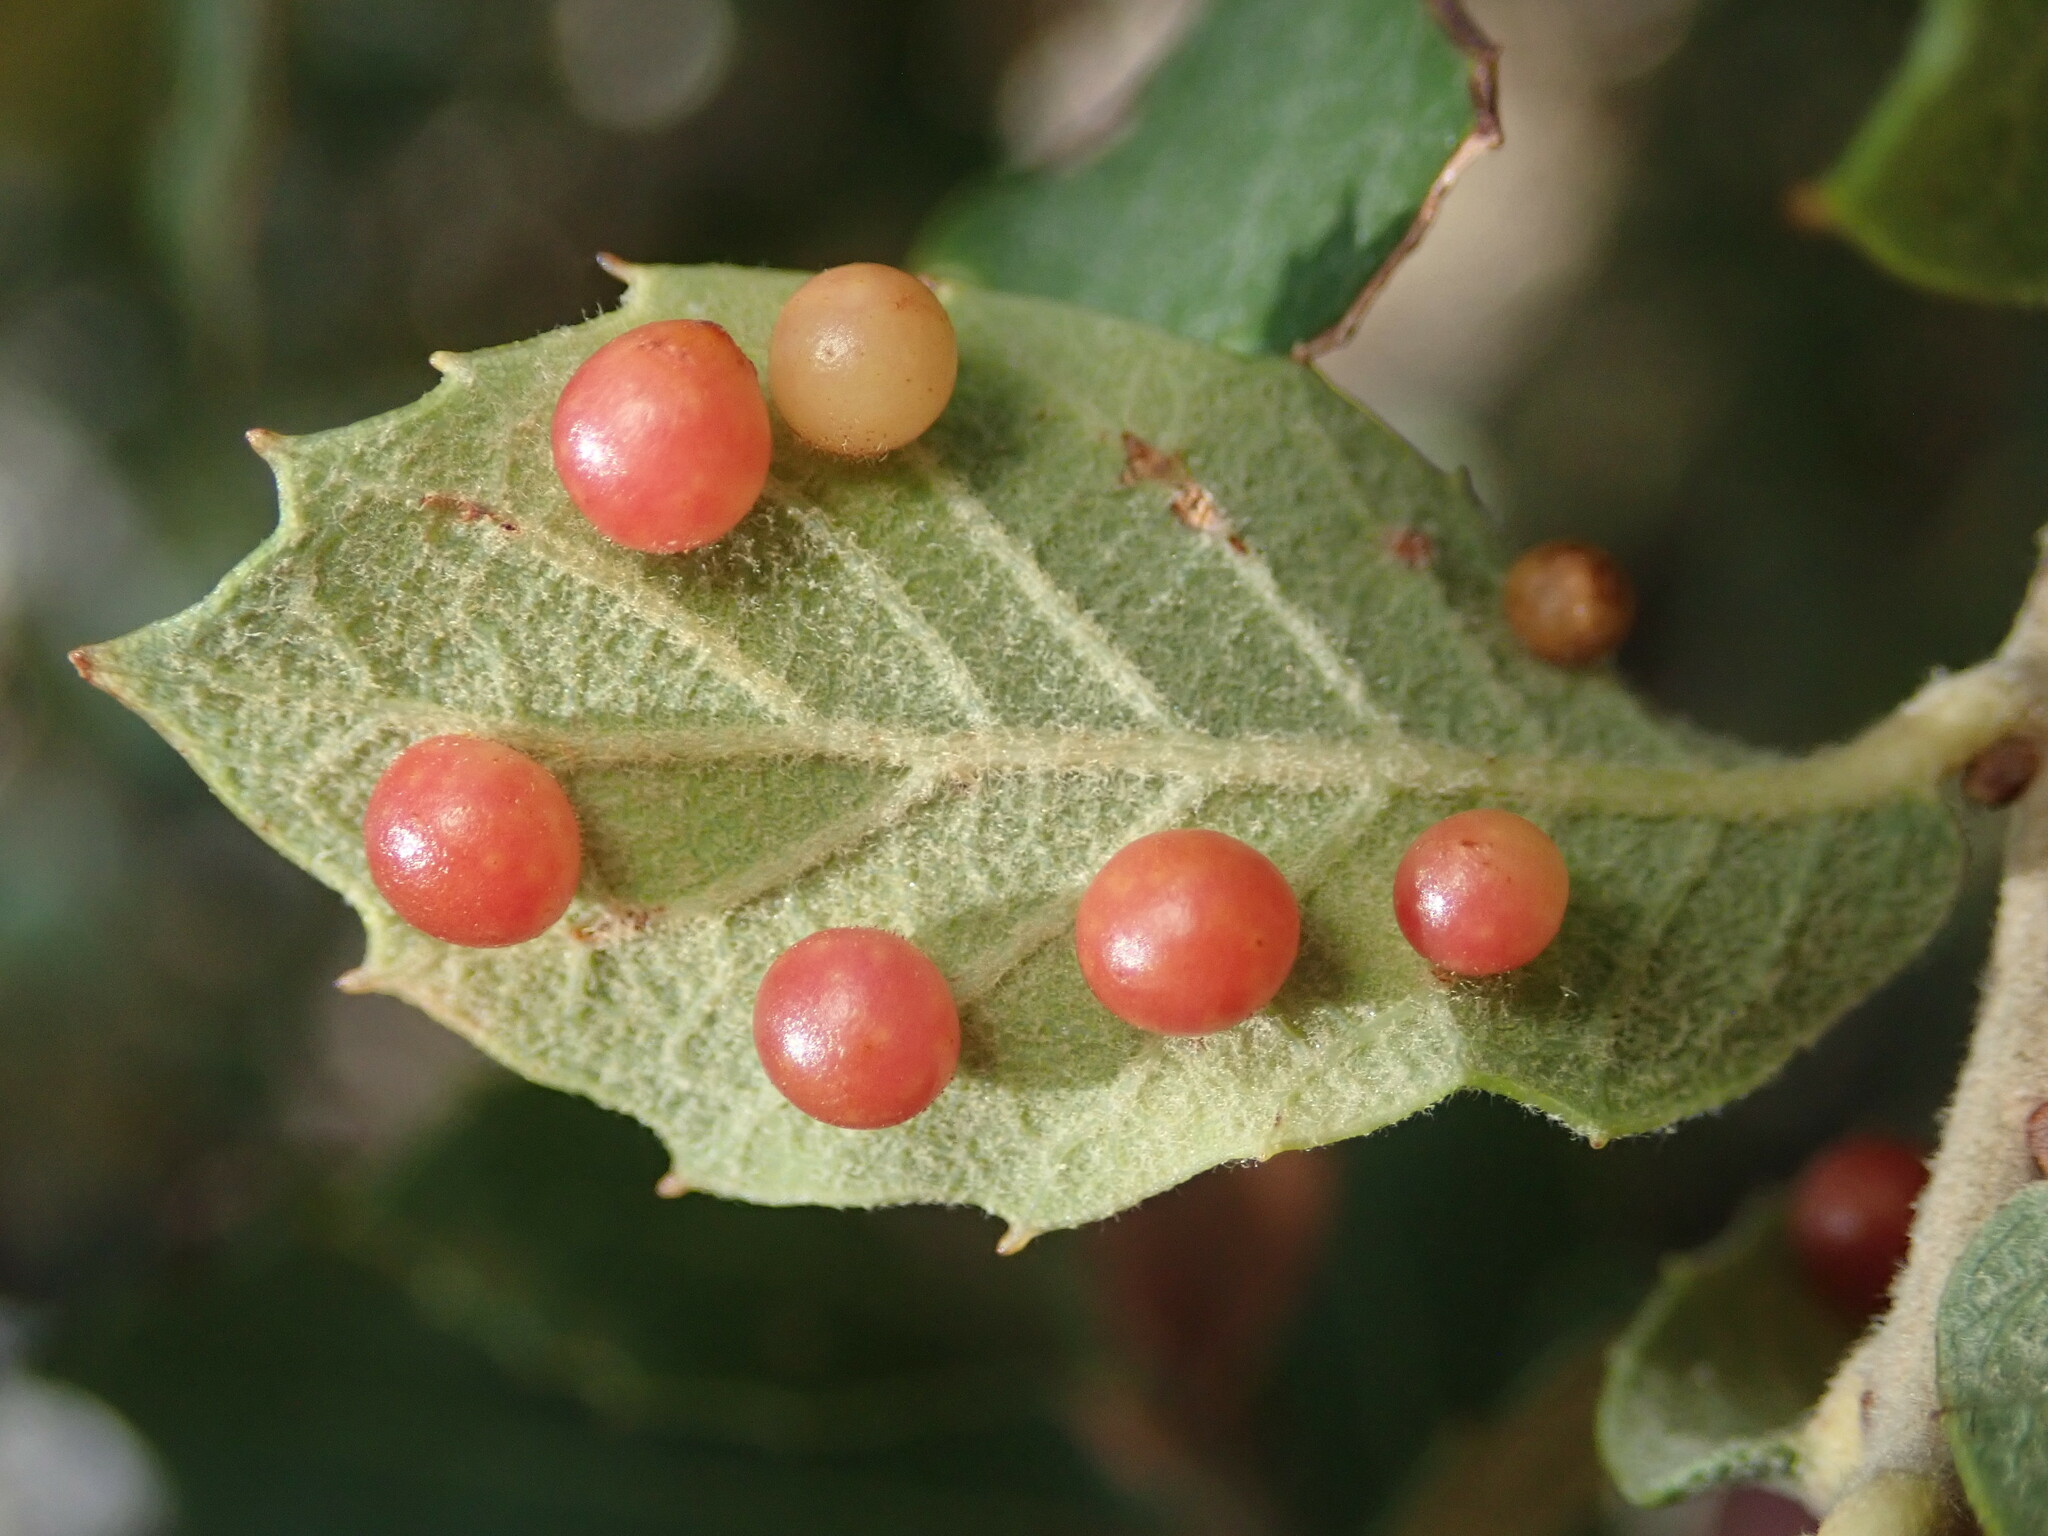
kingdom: Animalia
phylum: Arthropoda
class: Insecta
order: Hymenoptera
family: Cynipidae
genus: Biorhiza
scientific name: Biorhiza
